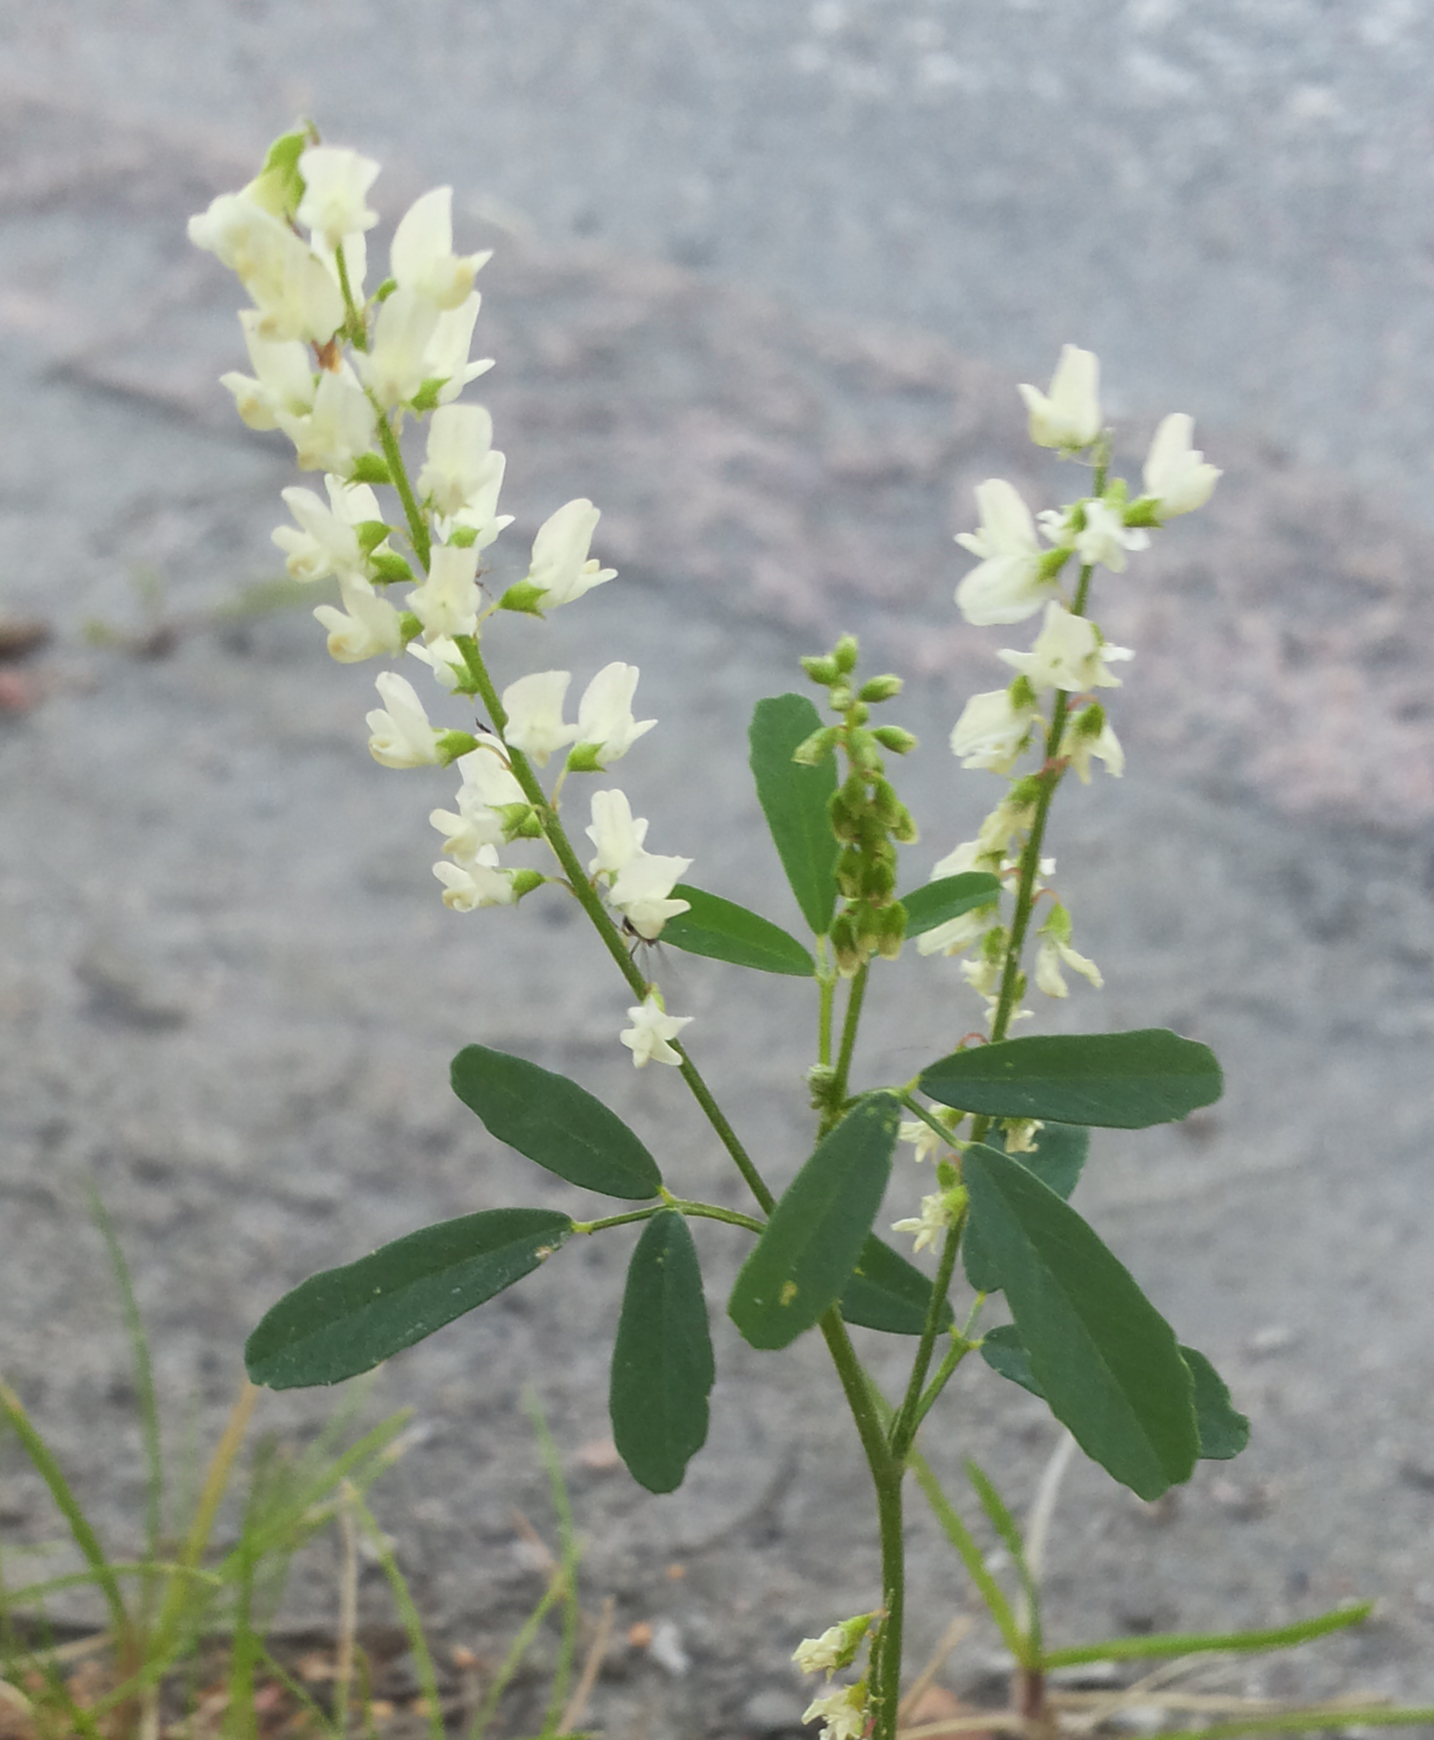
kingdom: Plantae
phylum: Tracheophyta
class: Magnoliopsida
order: Fabales
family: Fabaceae
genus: Melilotus
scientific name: Melilotus albus
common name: White melilot
